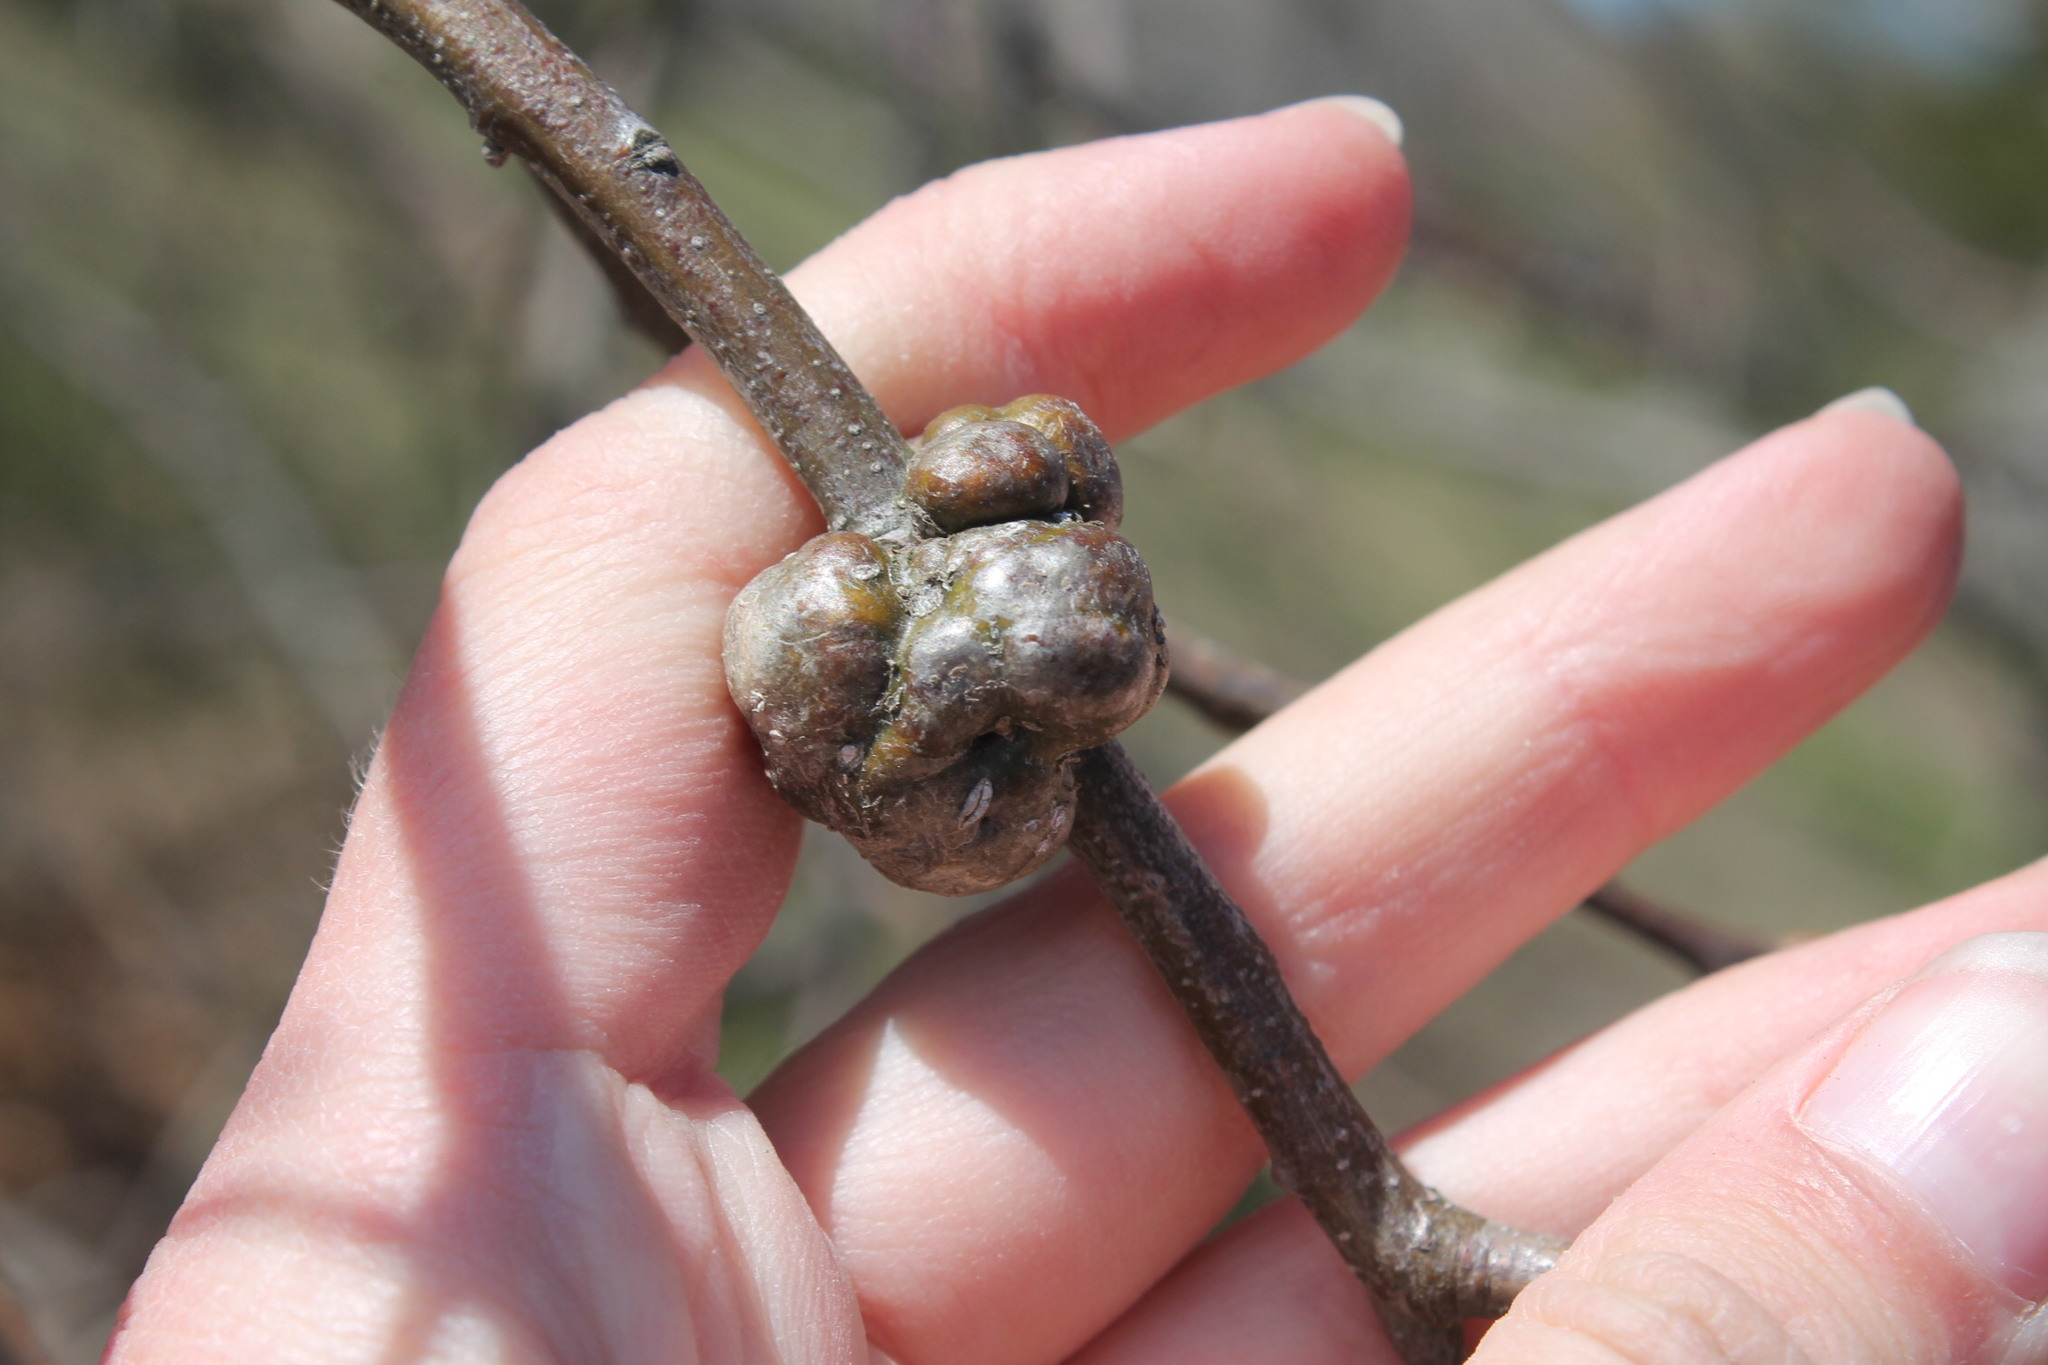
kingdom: Animalia
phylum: Arthropoda
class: Insecta
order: Hymenoptera
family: Cynipidae
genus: Diastrophus
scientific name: Diastrophus
